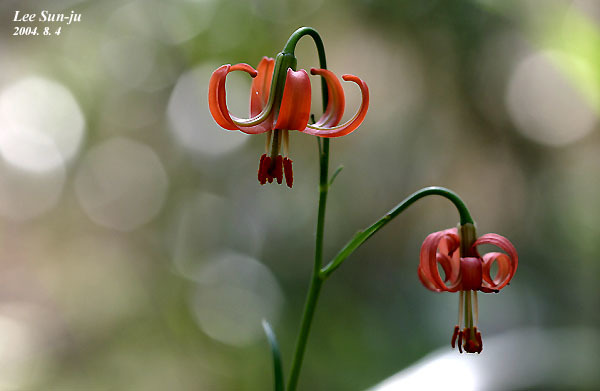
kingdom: Plantae
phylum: Tracheophyta
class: Liliopsida
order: Liliales
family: Liliaceae
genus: Lilium
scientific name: Lilium callosum
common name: Slim-stem lily
